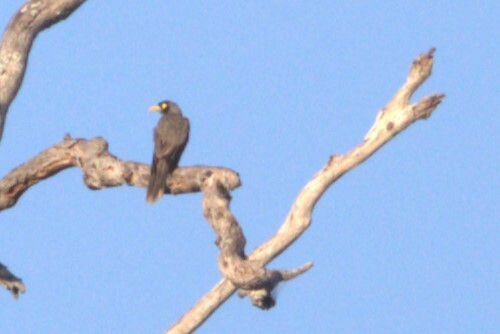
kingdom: Animalia
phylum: Chordata
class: Aves
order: Passeriformes
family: Meliphagidae
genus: Manorina
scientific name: Manorina melanocephala
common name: Noisy miner
